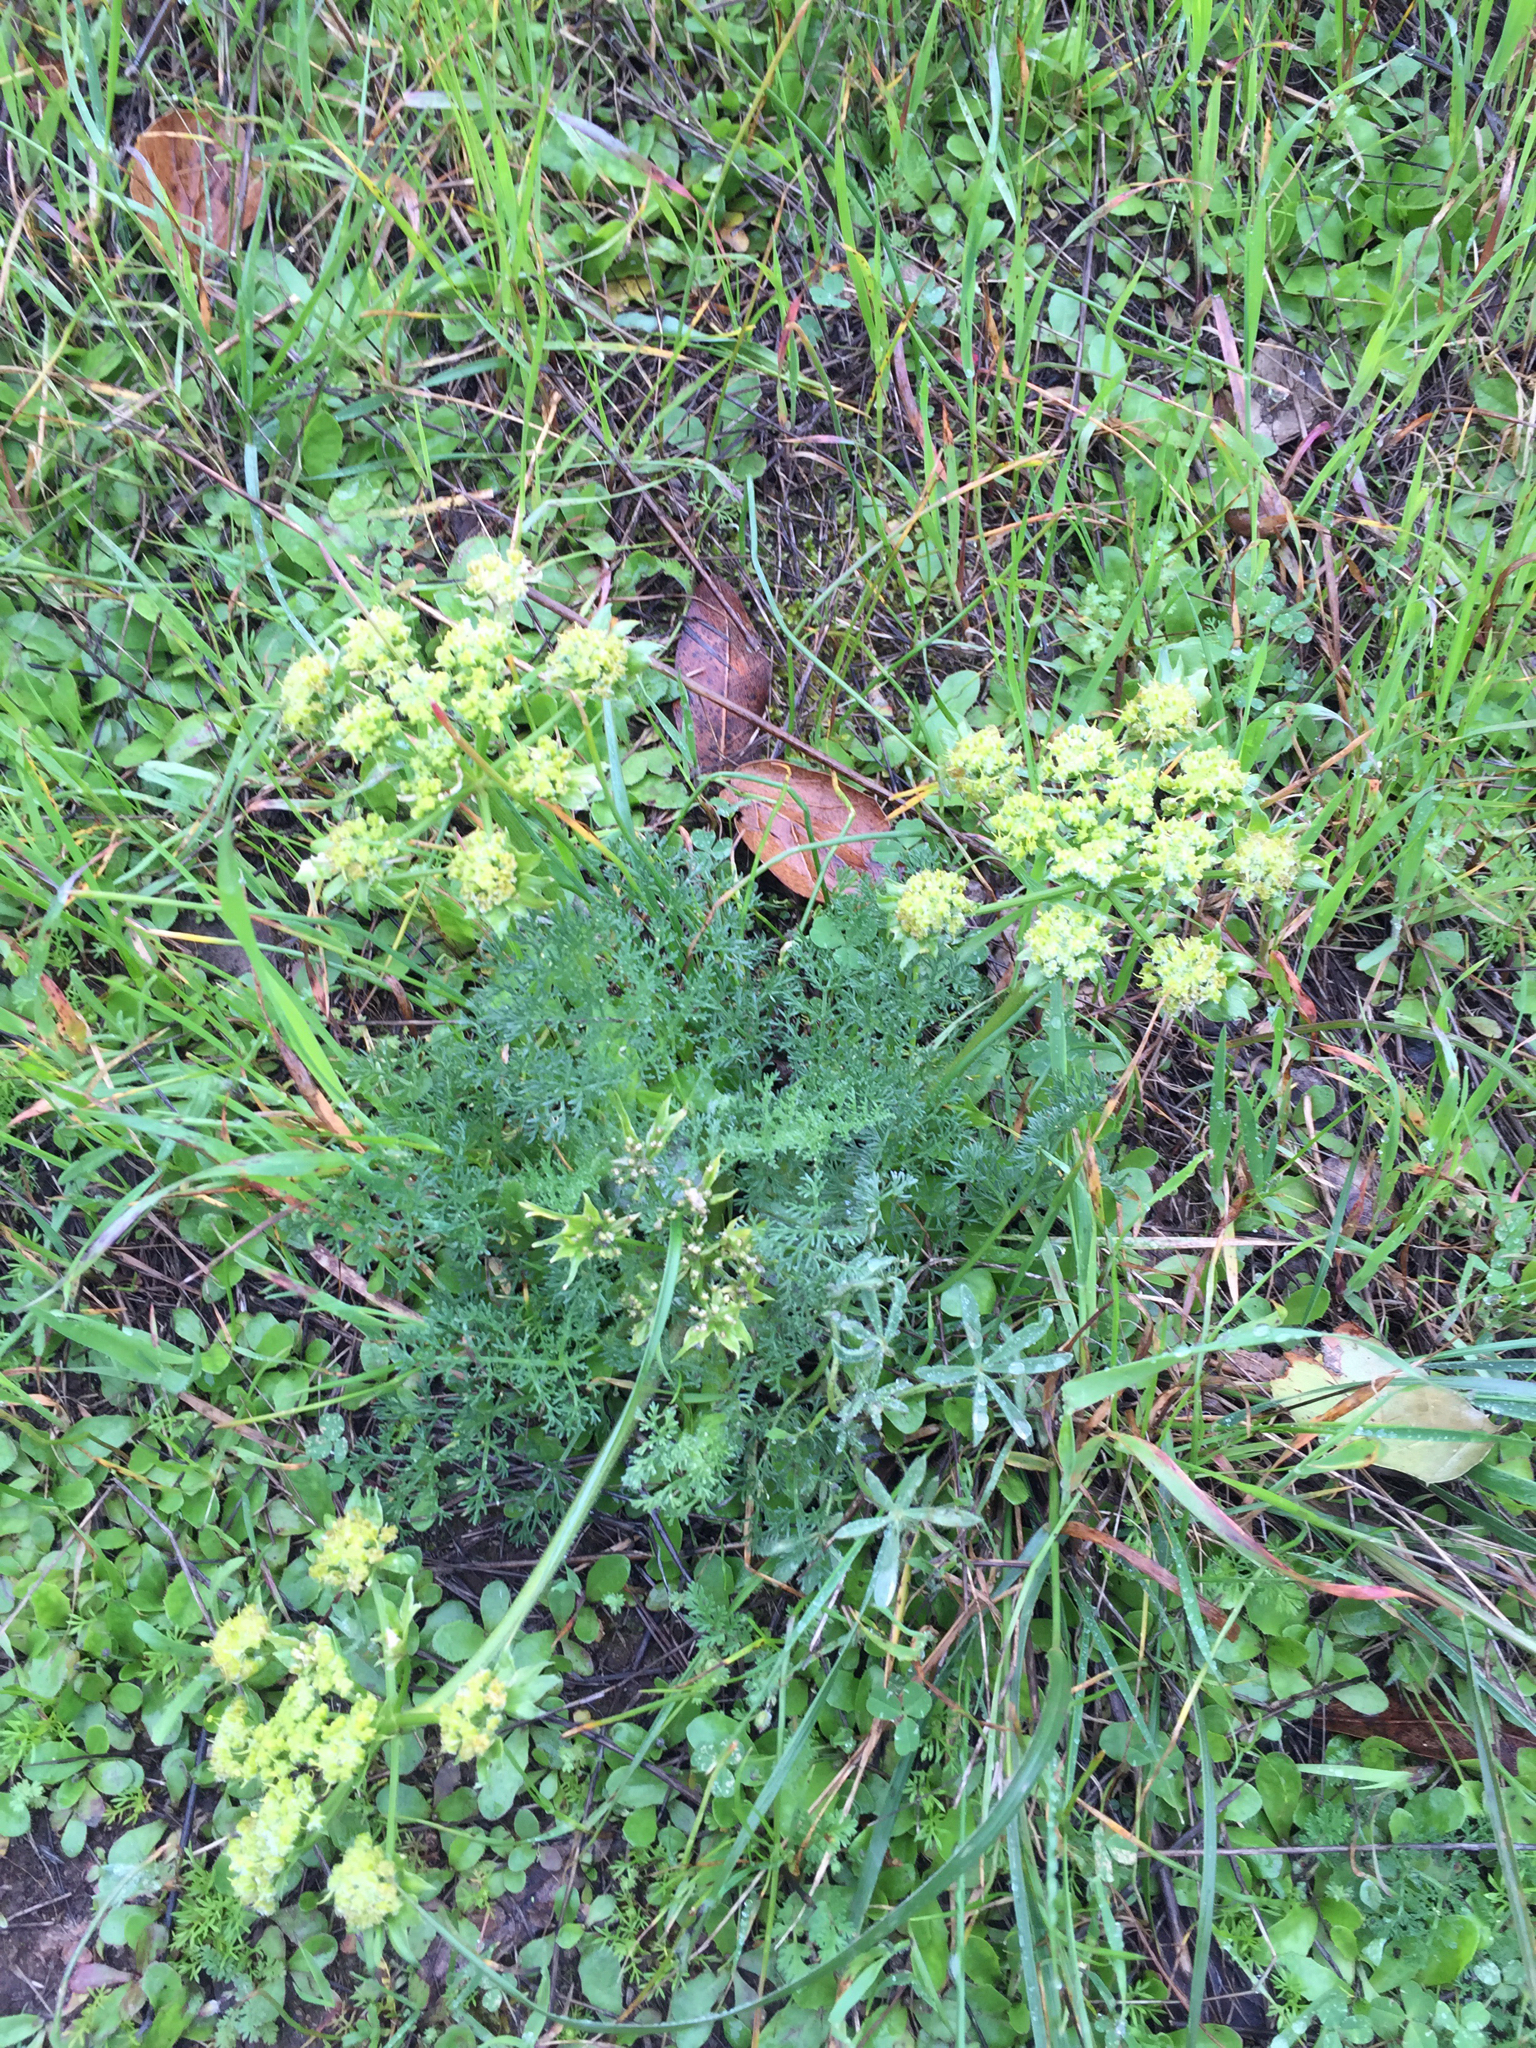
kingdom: Plantae
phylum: Tracheophyta
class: Magnoliopsida
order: Apiales
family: Apiaceae
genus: Lomatium
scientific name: Lomatium dasycarpum
